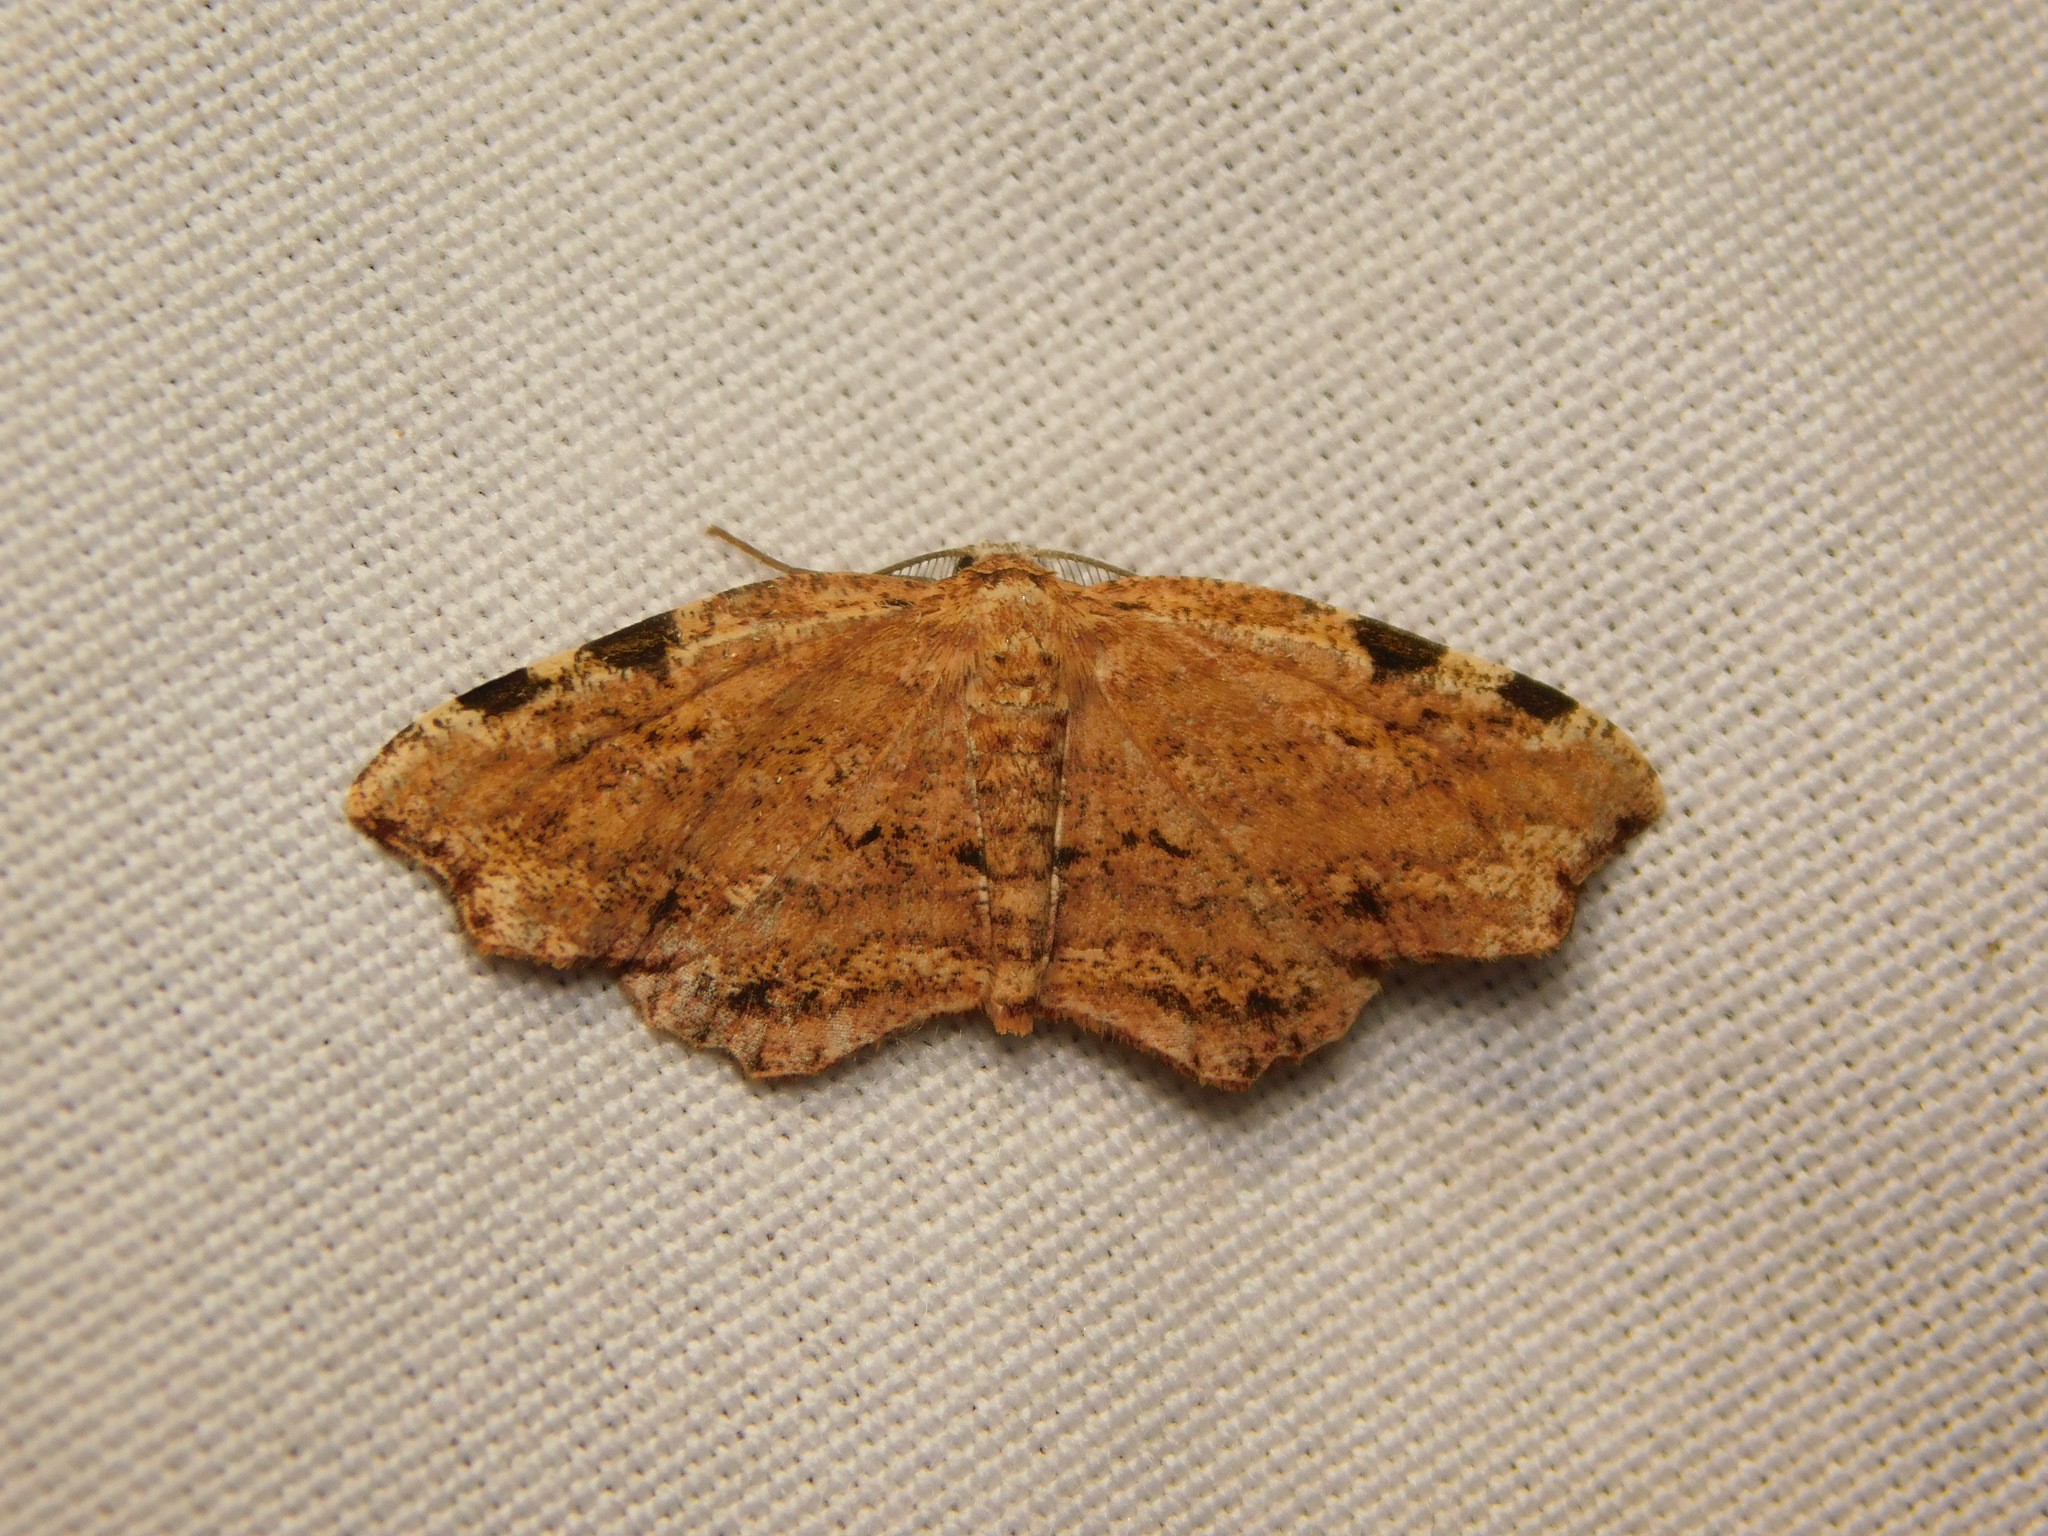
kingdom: Animalia
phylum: Arthropoda
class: Insecta
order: Lepidoptera
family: Geometridae
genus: Achrosis
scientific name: Achrosis intexta
